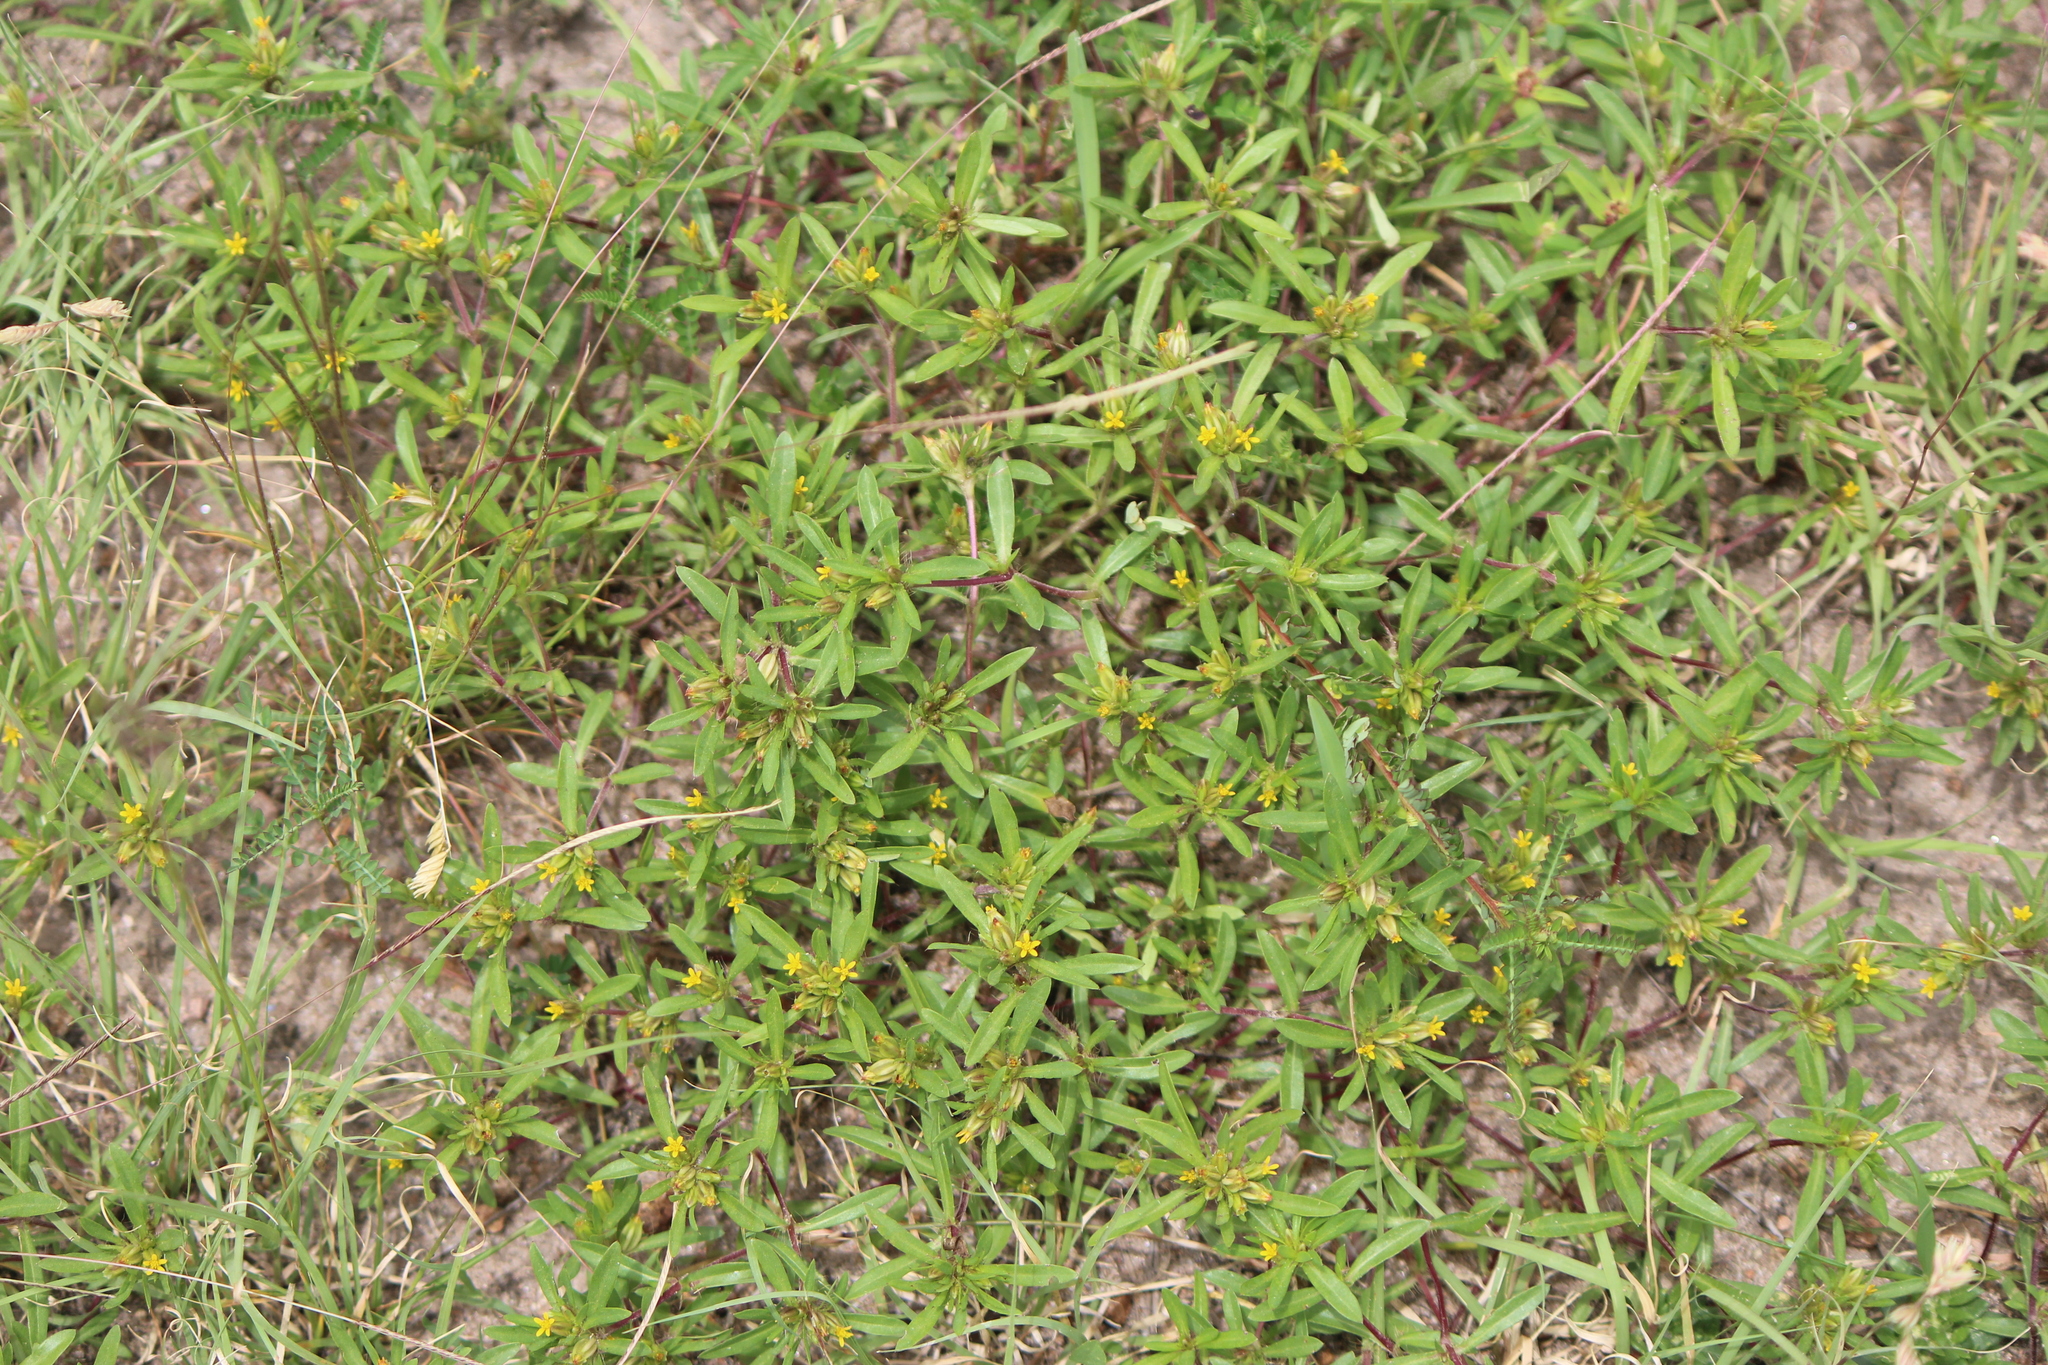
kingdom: Plantae
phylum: Tracheophyta
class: Magnoliopsida
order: Asterales
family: Asteraceae
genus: Pectis
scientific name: Pectis prostrata
